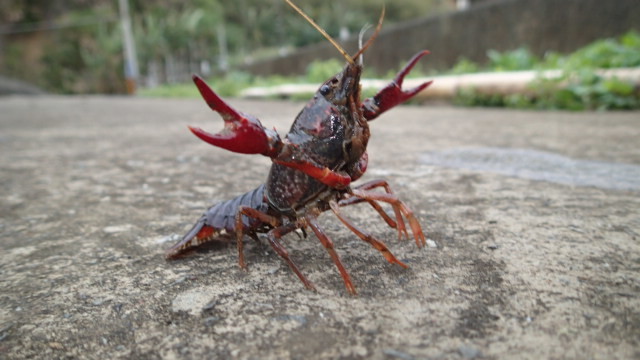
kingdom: Animalia
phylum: Arthropoda
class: Malacostraca
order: Decapoda
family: Cambaridae
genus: Procambarus
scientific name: Procambarus clarkii
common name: Red swamp crayfish
